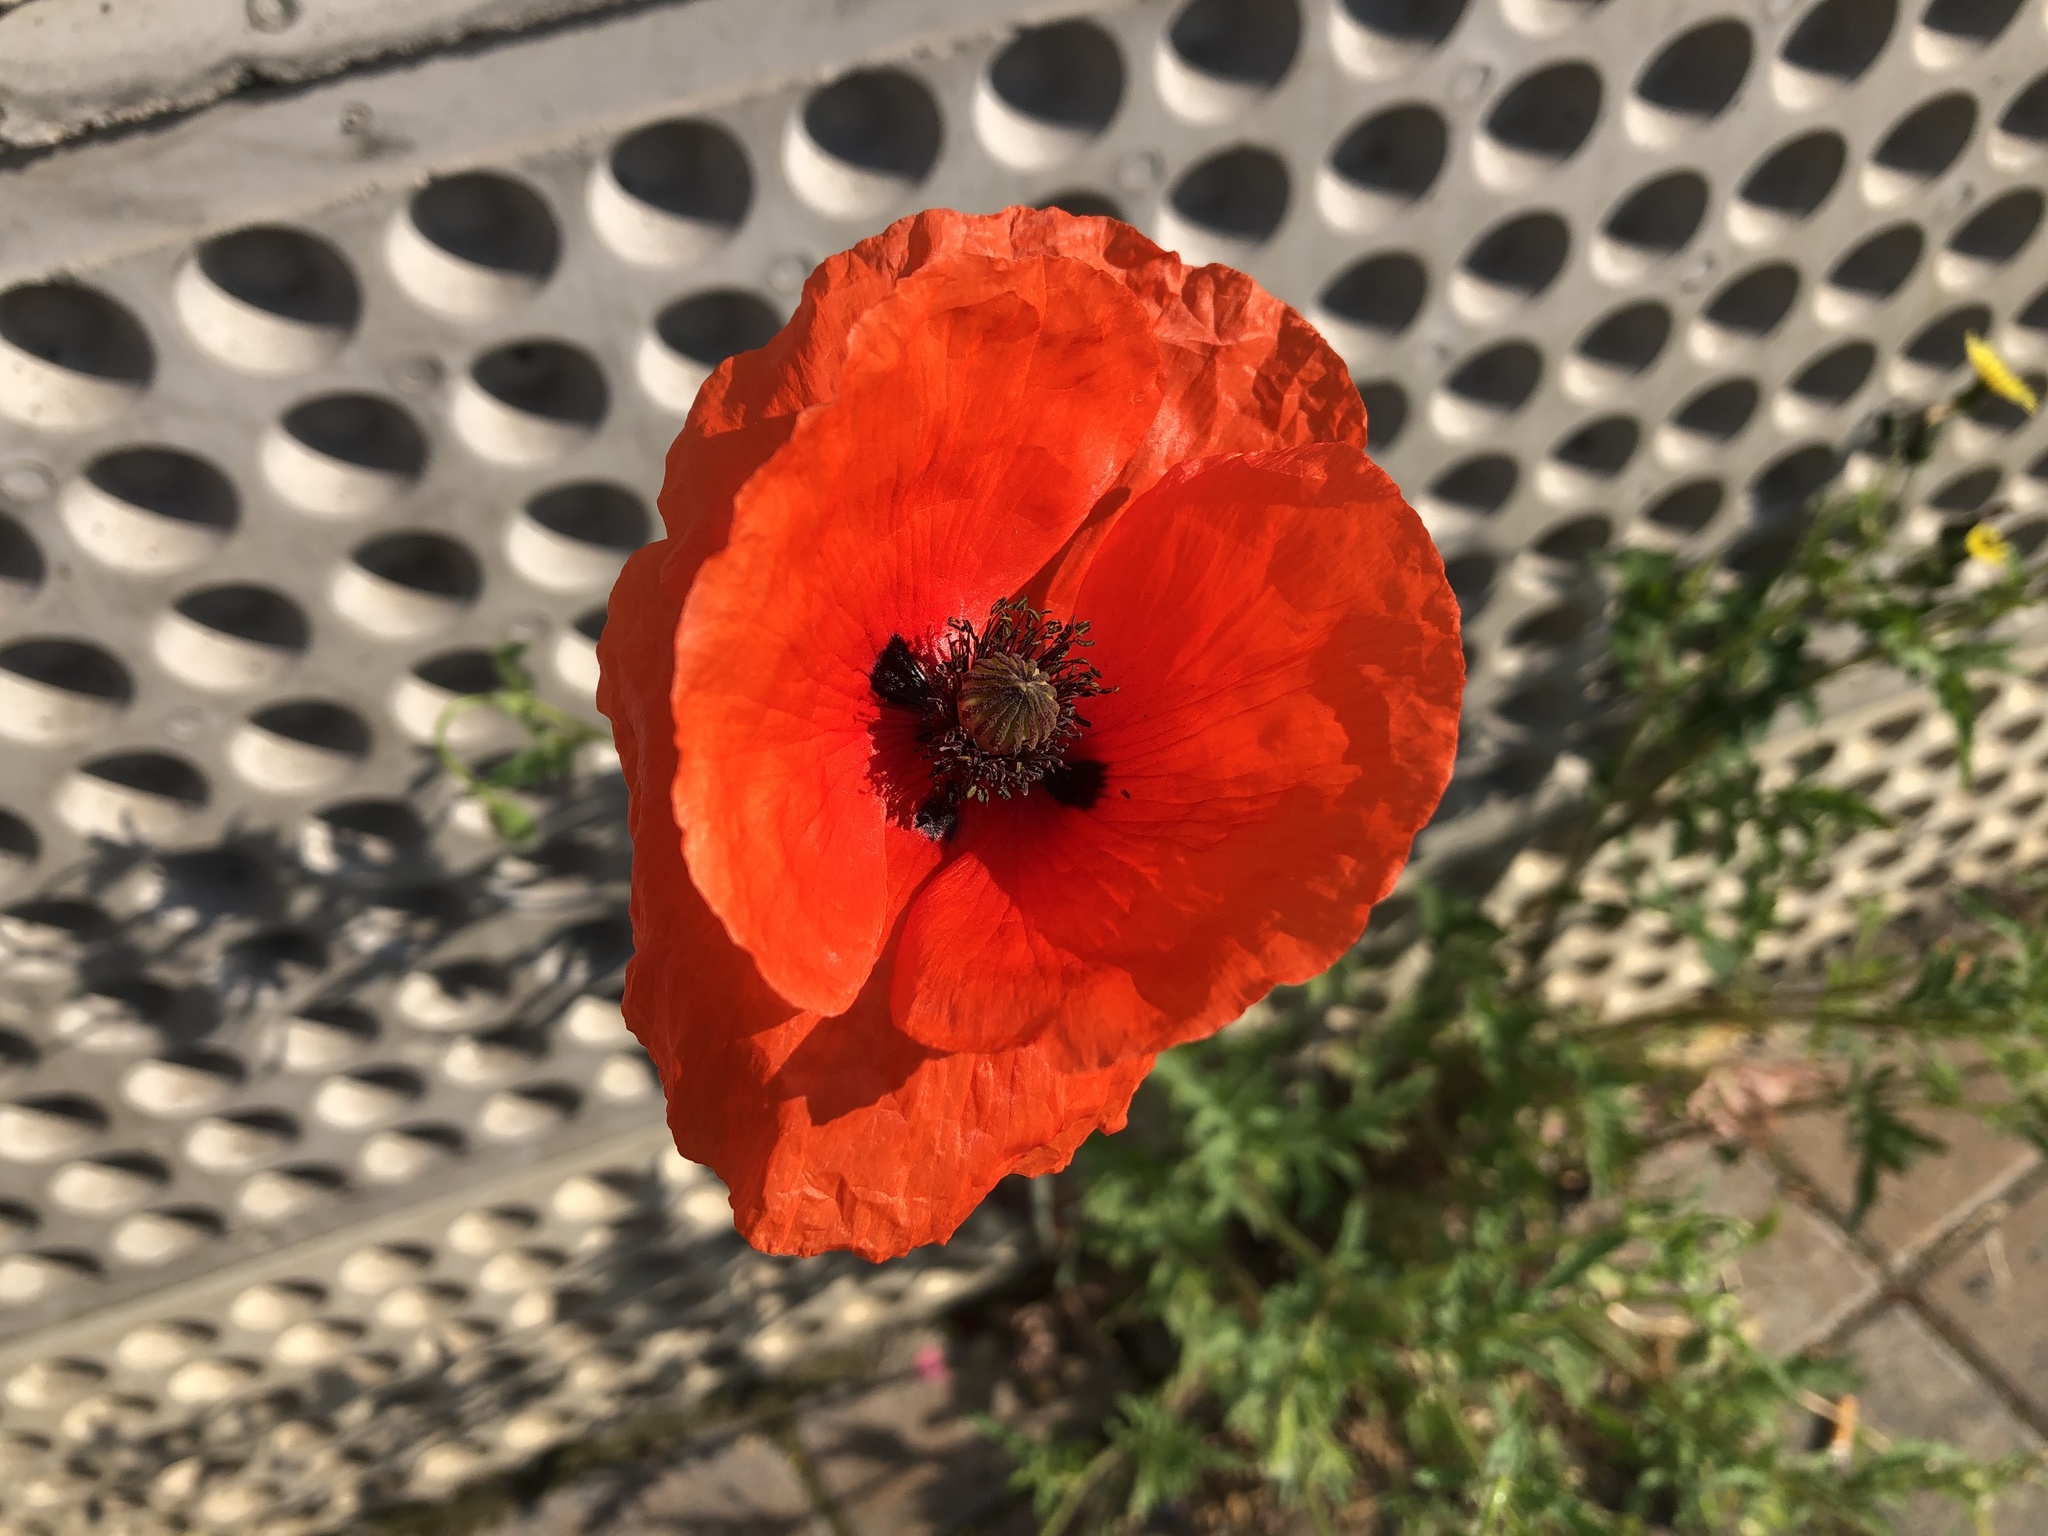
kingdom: Plantae
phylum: Tracheophyta
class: Magnoliopsida
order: Ranunculales
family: Papaveraceae
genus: Papaver
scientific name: Papaver rhoeas
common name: Corn poppy
